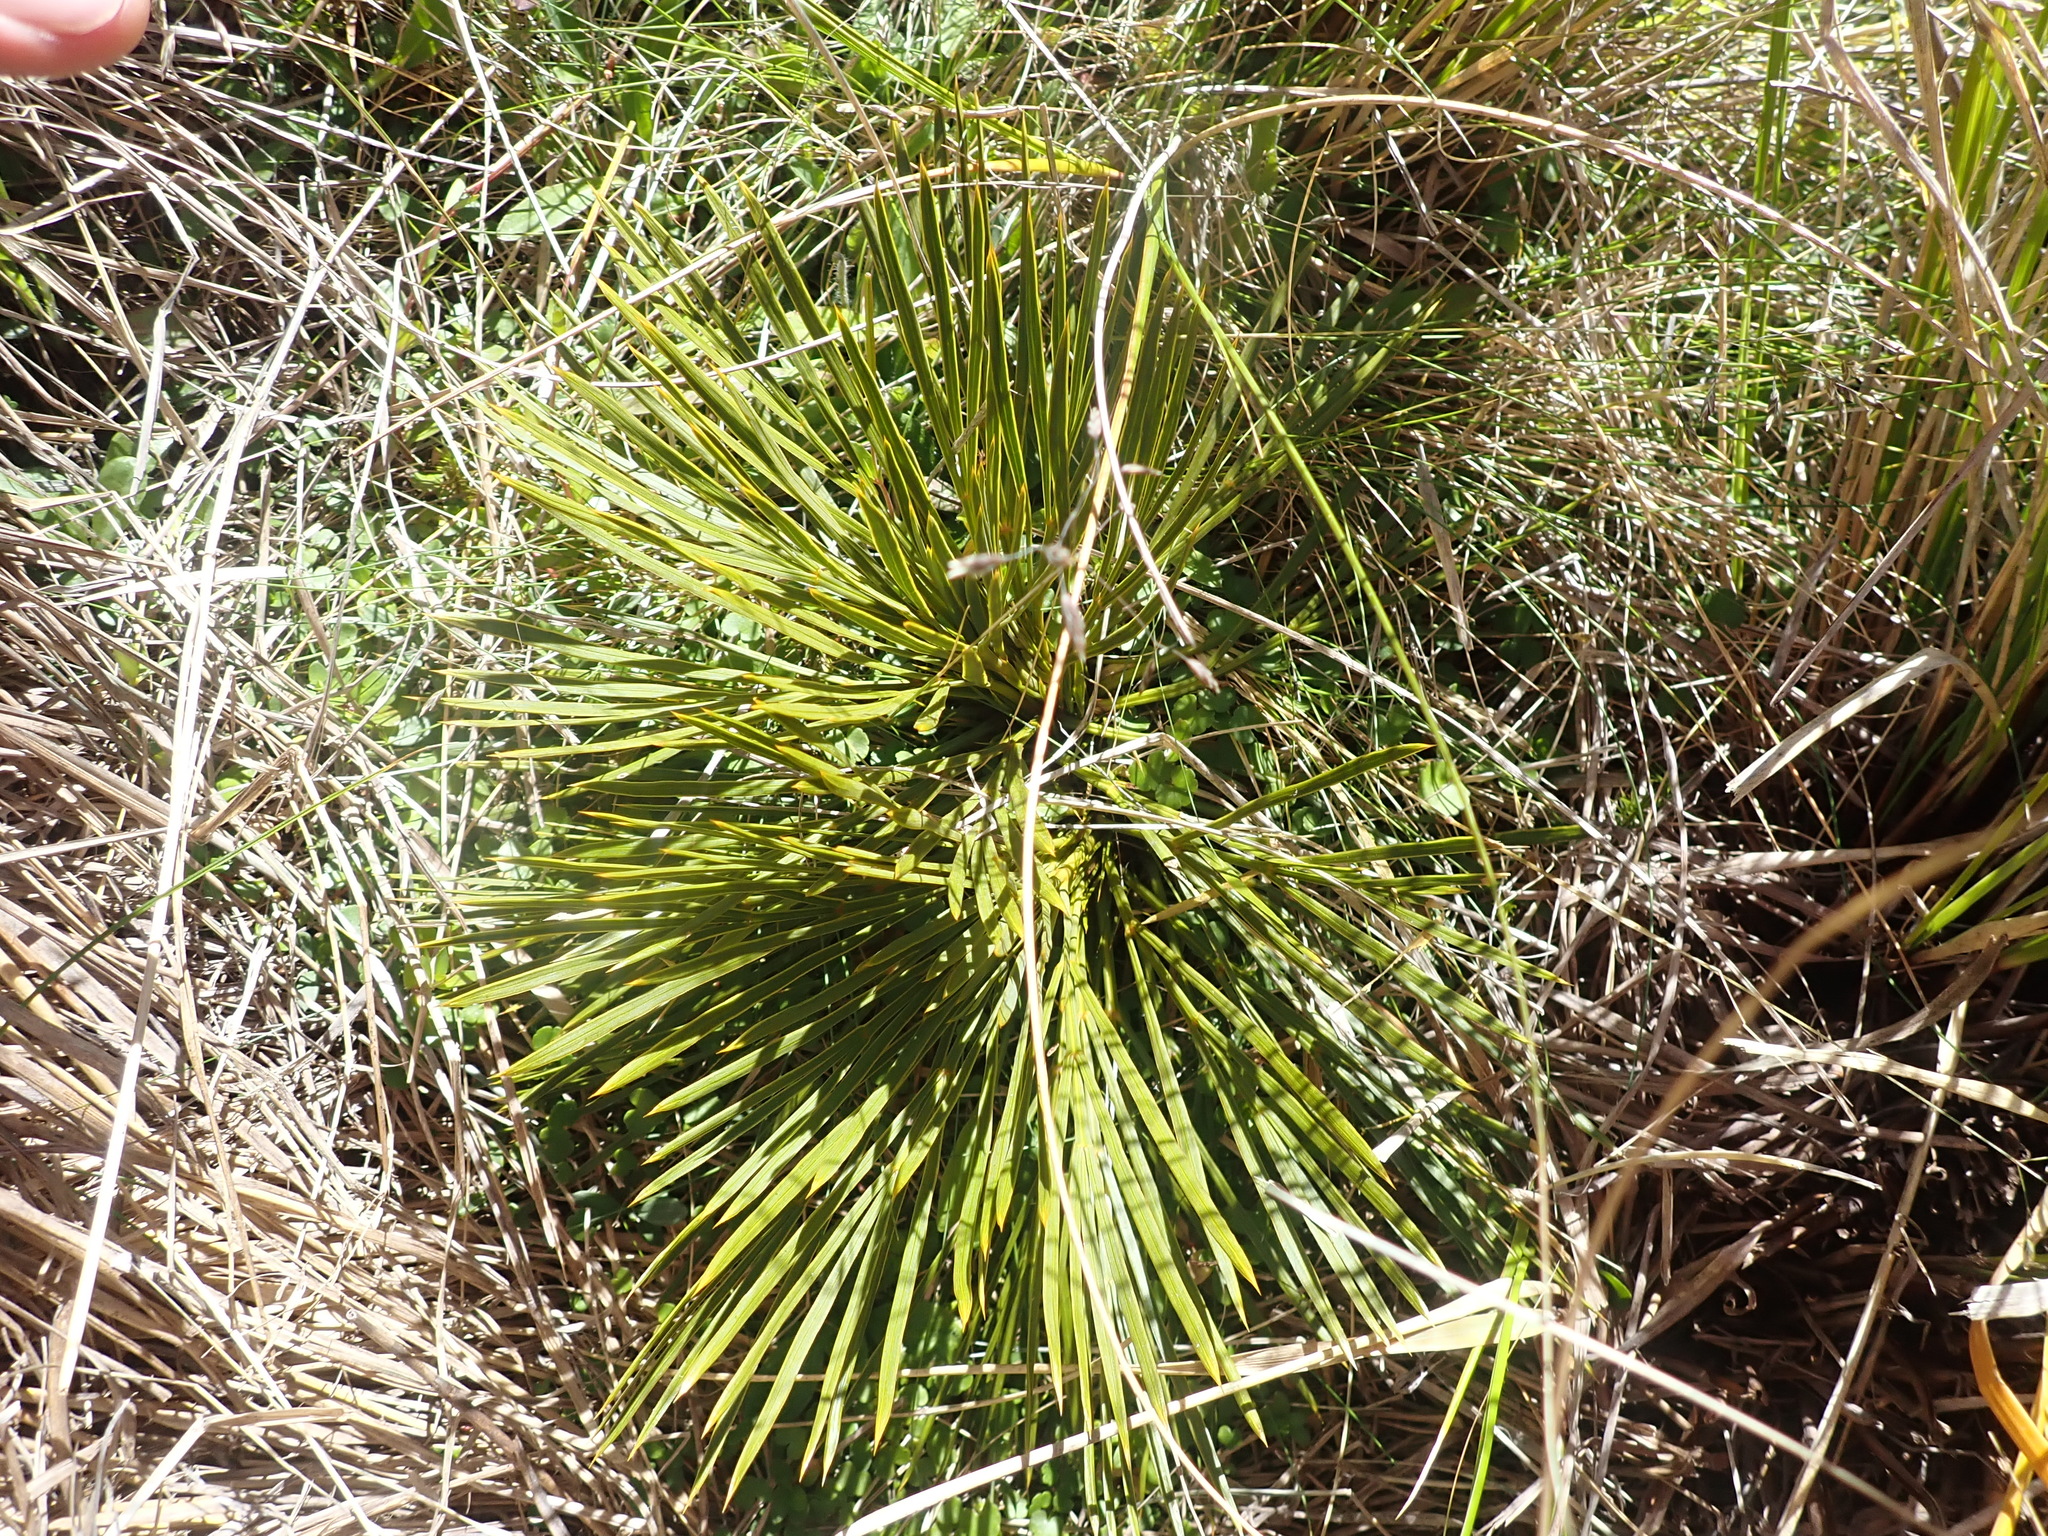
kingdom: Plantae
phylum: Tracheophyta
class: Magnoliopsida
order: Apiales
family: Apiaceae
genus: Aciphylla
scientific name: Aciphylla montana
